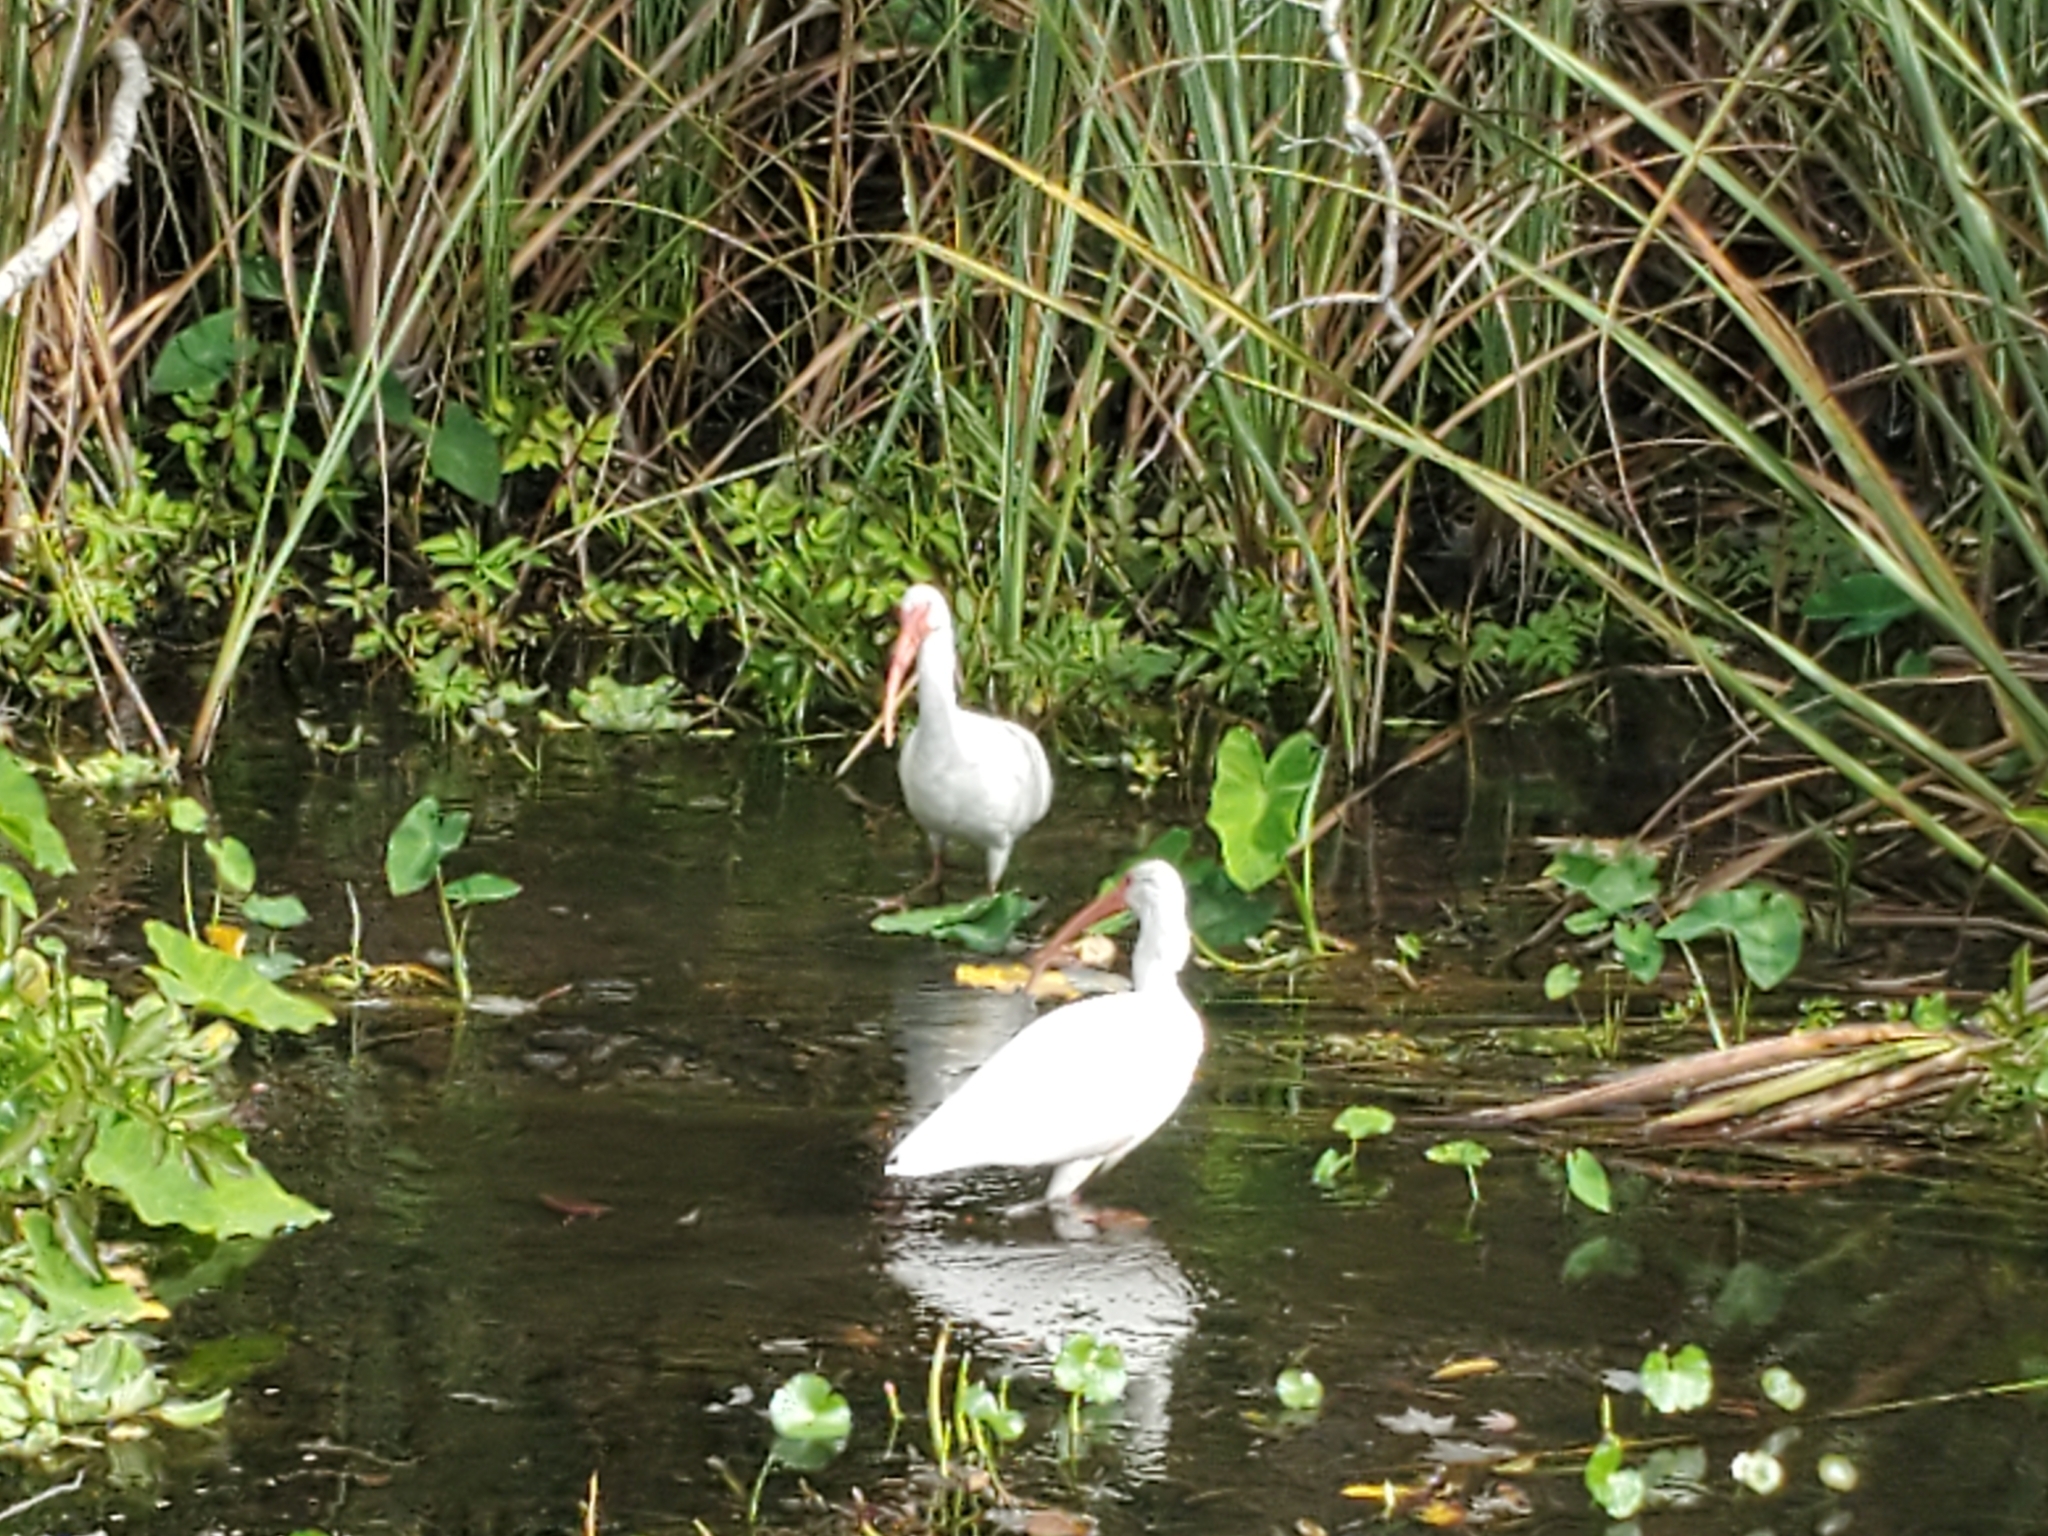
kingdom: Animalia
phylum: Chordata
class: Aves
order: Pelecaniformes
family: Threskiornithidae
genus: Eudocimus
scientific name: Eudocimus albus
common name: White ibis
